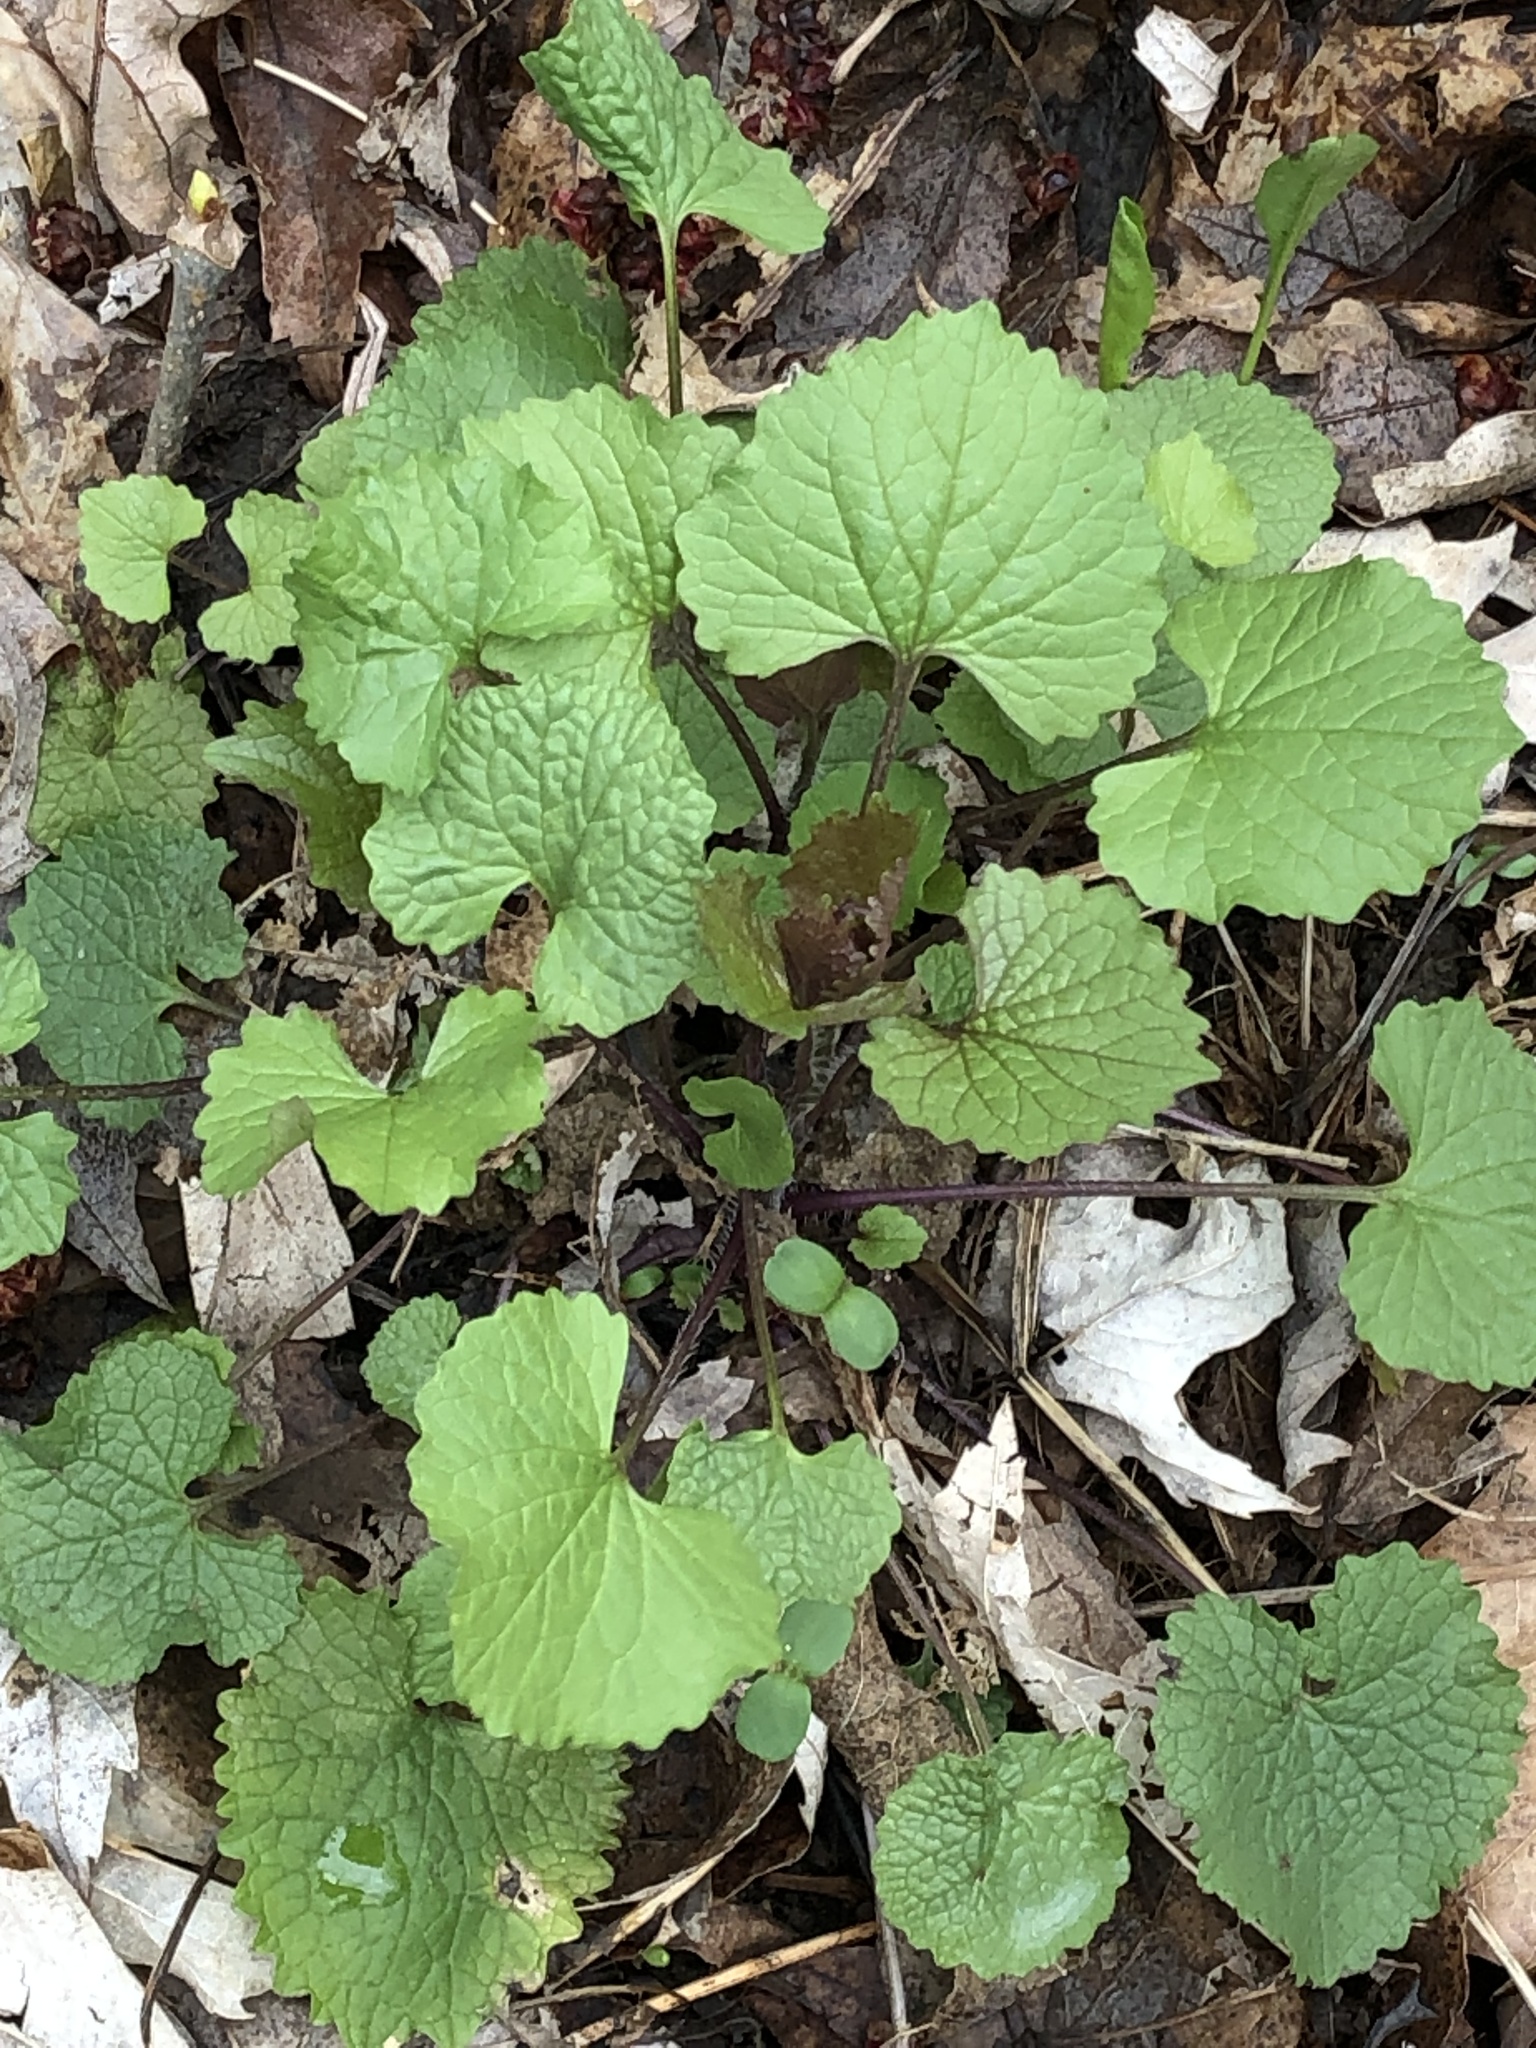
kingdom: Plantae
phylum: Tracheophyta
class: Magnoliopsida
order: Brassicales
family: Brassicaceae
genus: Alliaria
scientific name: Alliaria petiolata
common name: Garlic mustard
